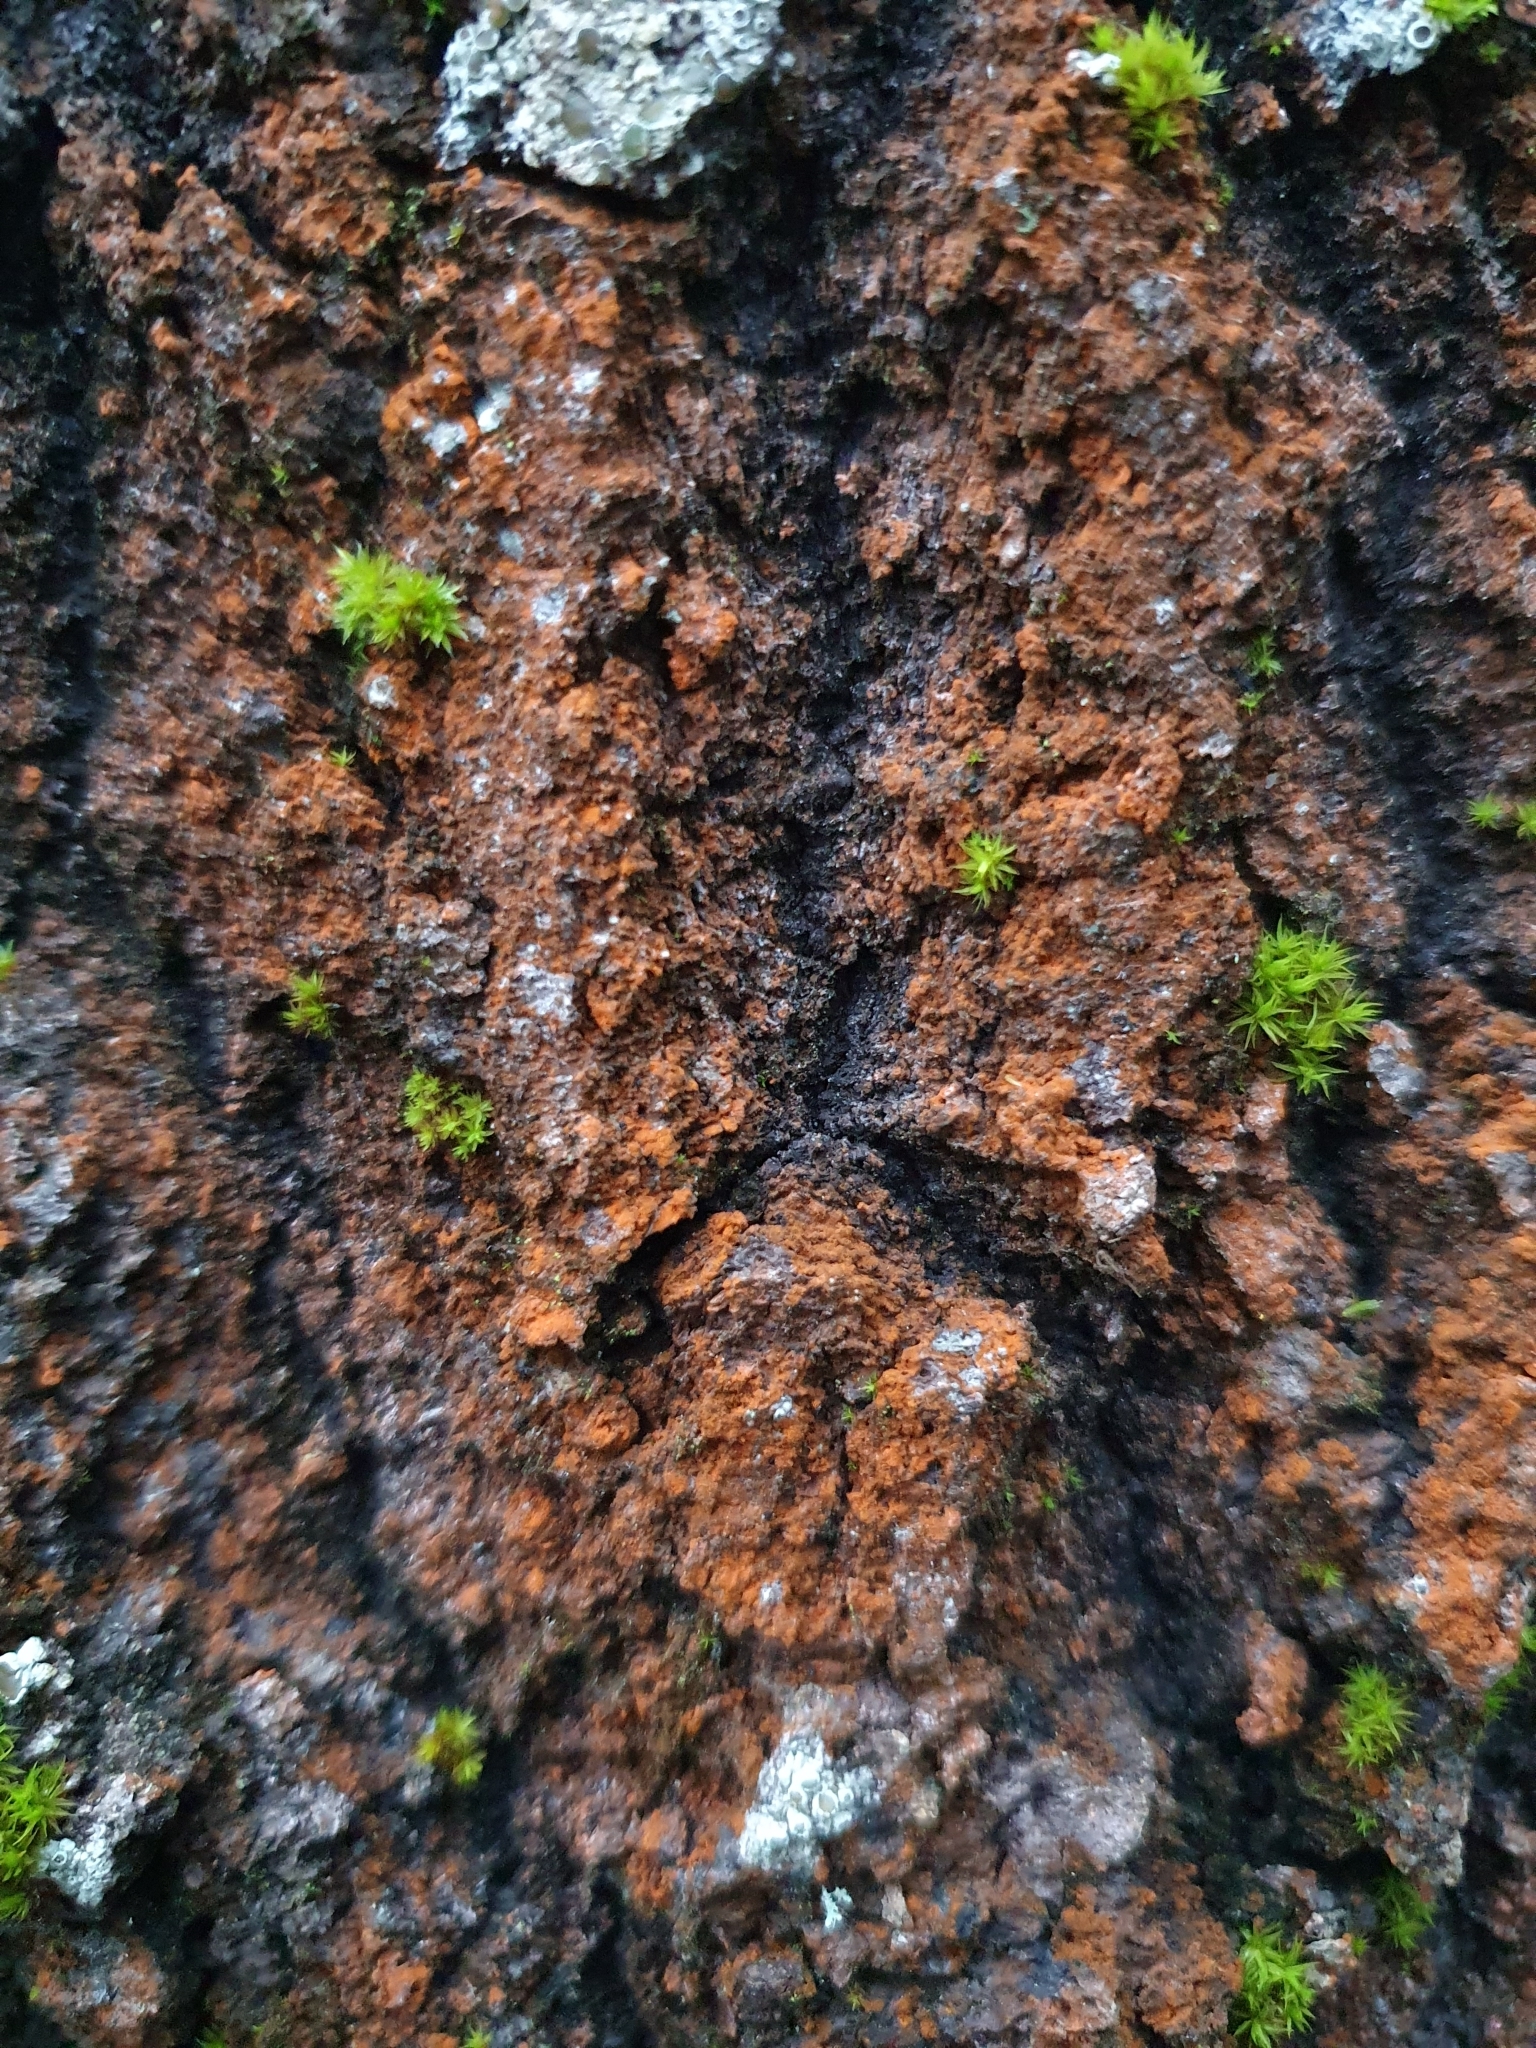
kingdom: Plantae
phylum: Chlorophyta
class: Ulvophyceae
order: Trentepohliales
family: Trentepohliaceae
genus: Trentepohlia
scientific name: Trentepohlia umbrina
